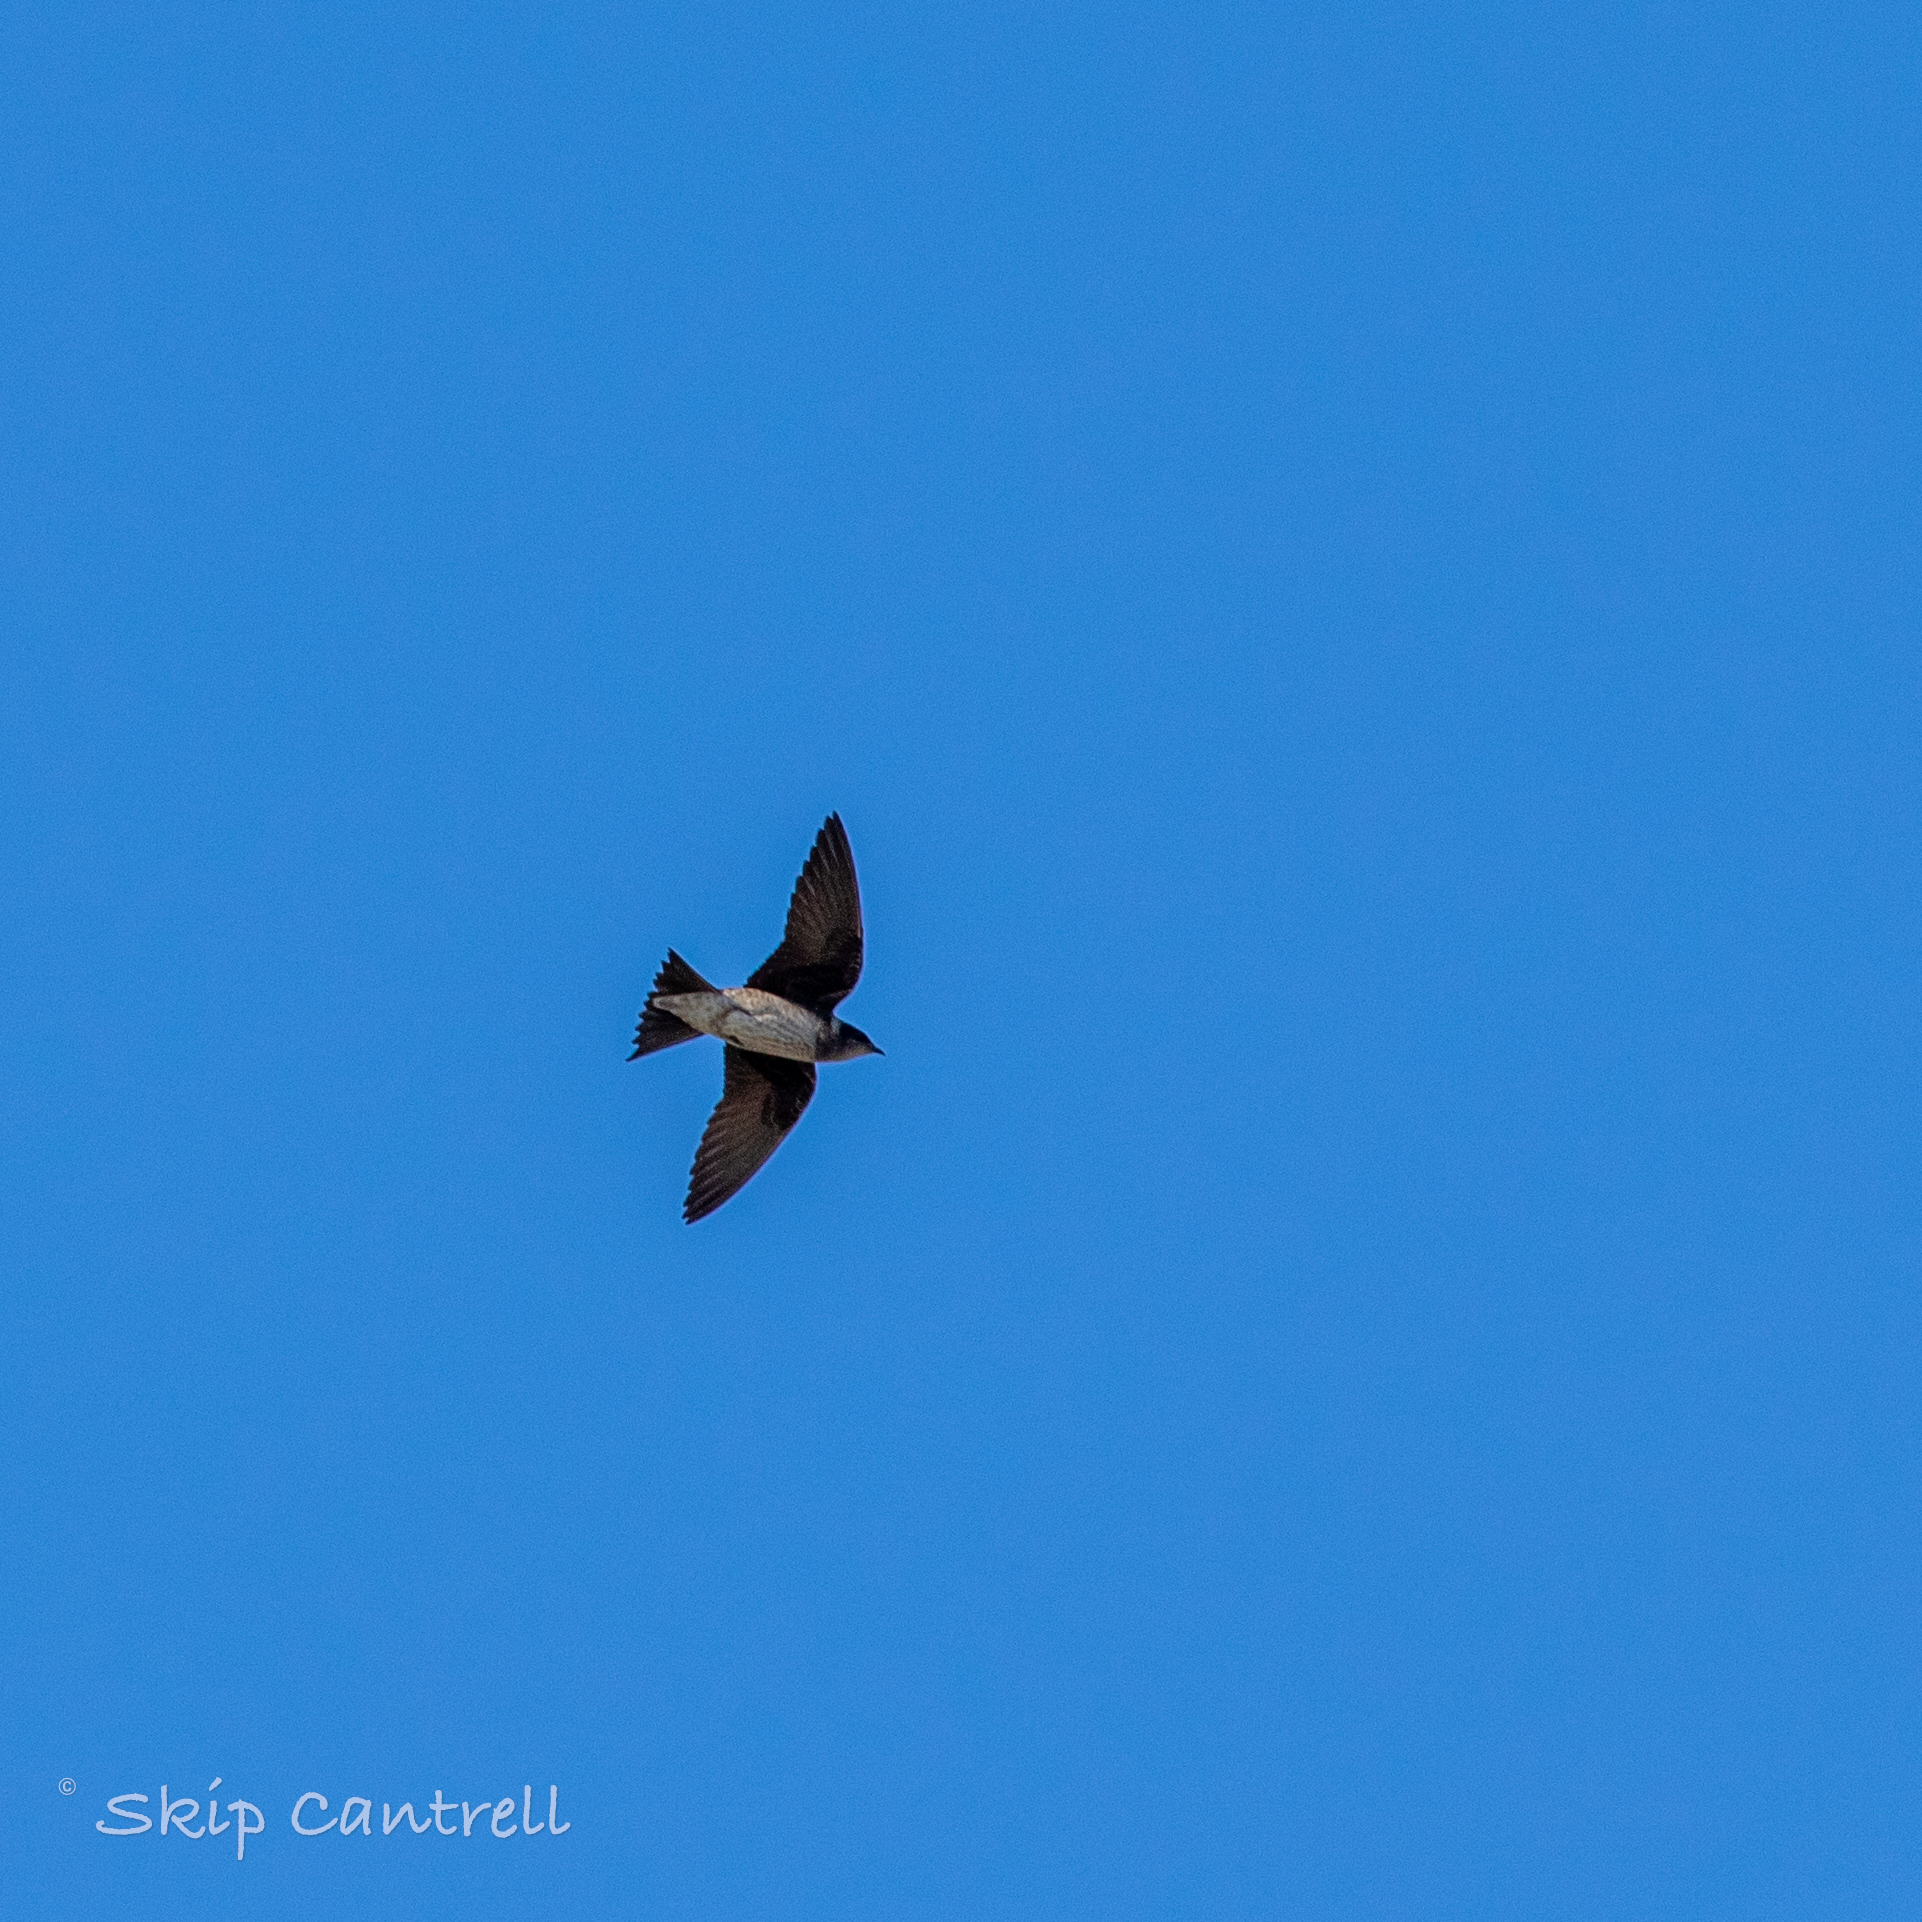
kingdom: Animalia
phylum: Chordata
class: Aves
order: Passeriformes
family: Hirundinidae
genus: Progne
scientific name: Progne subis
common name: Purple martin
